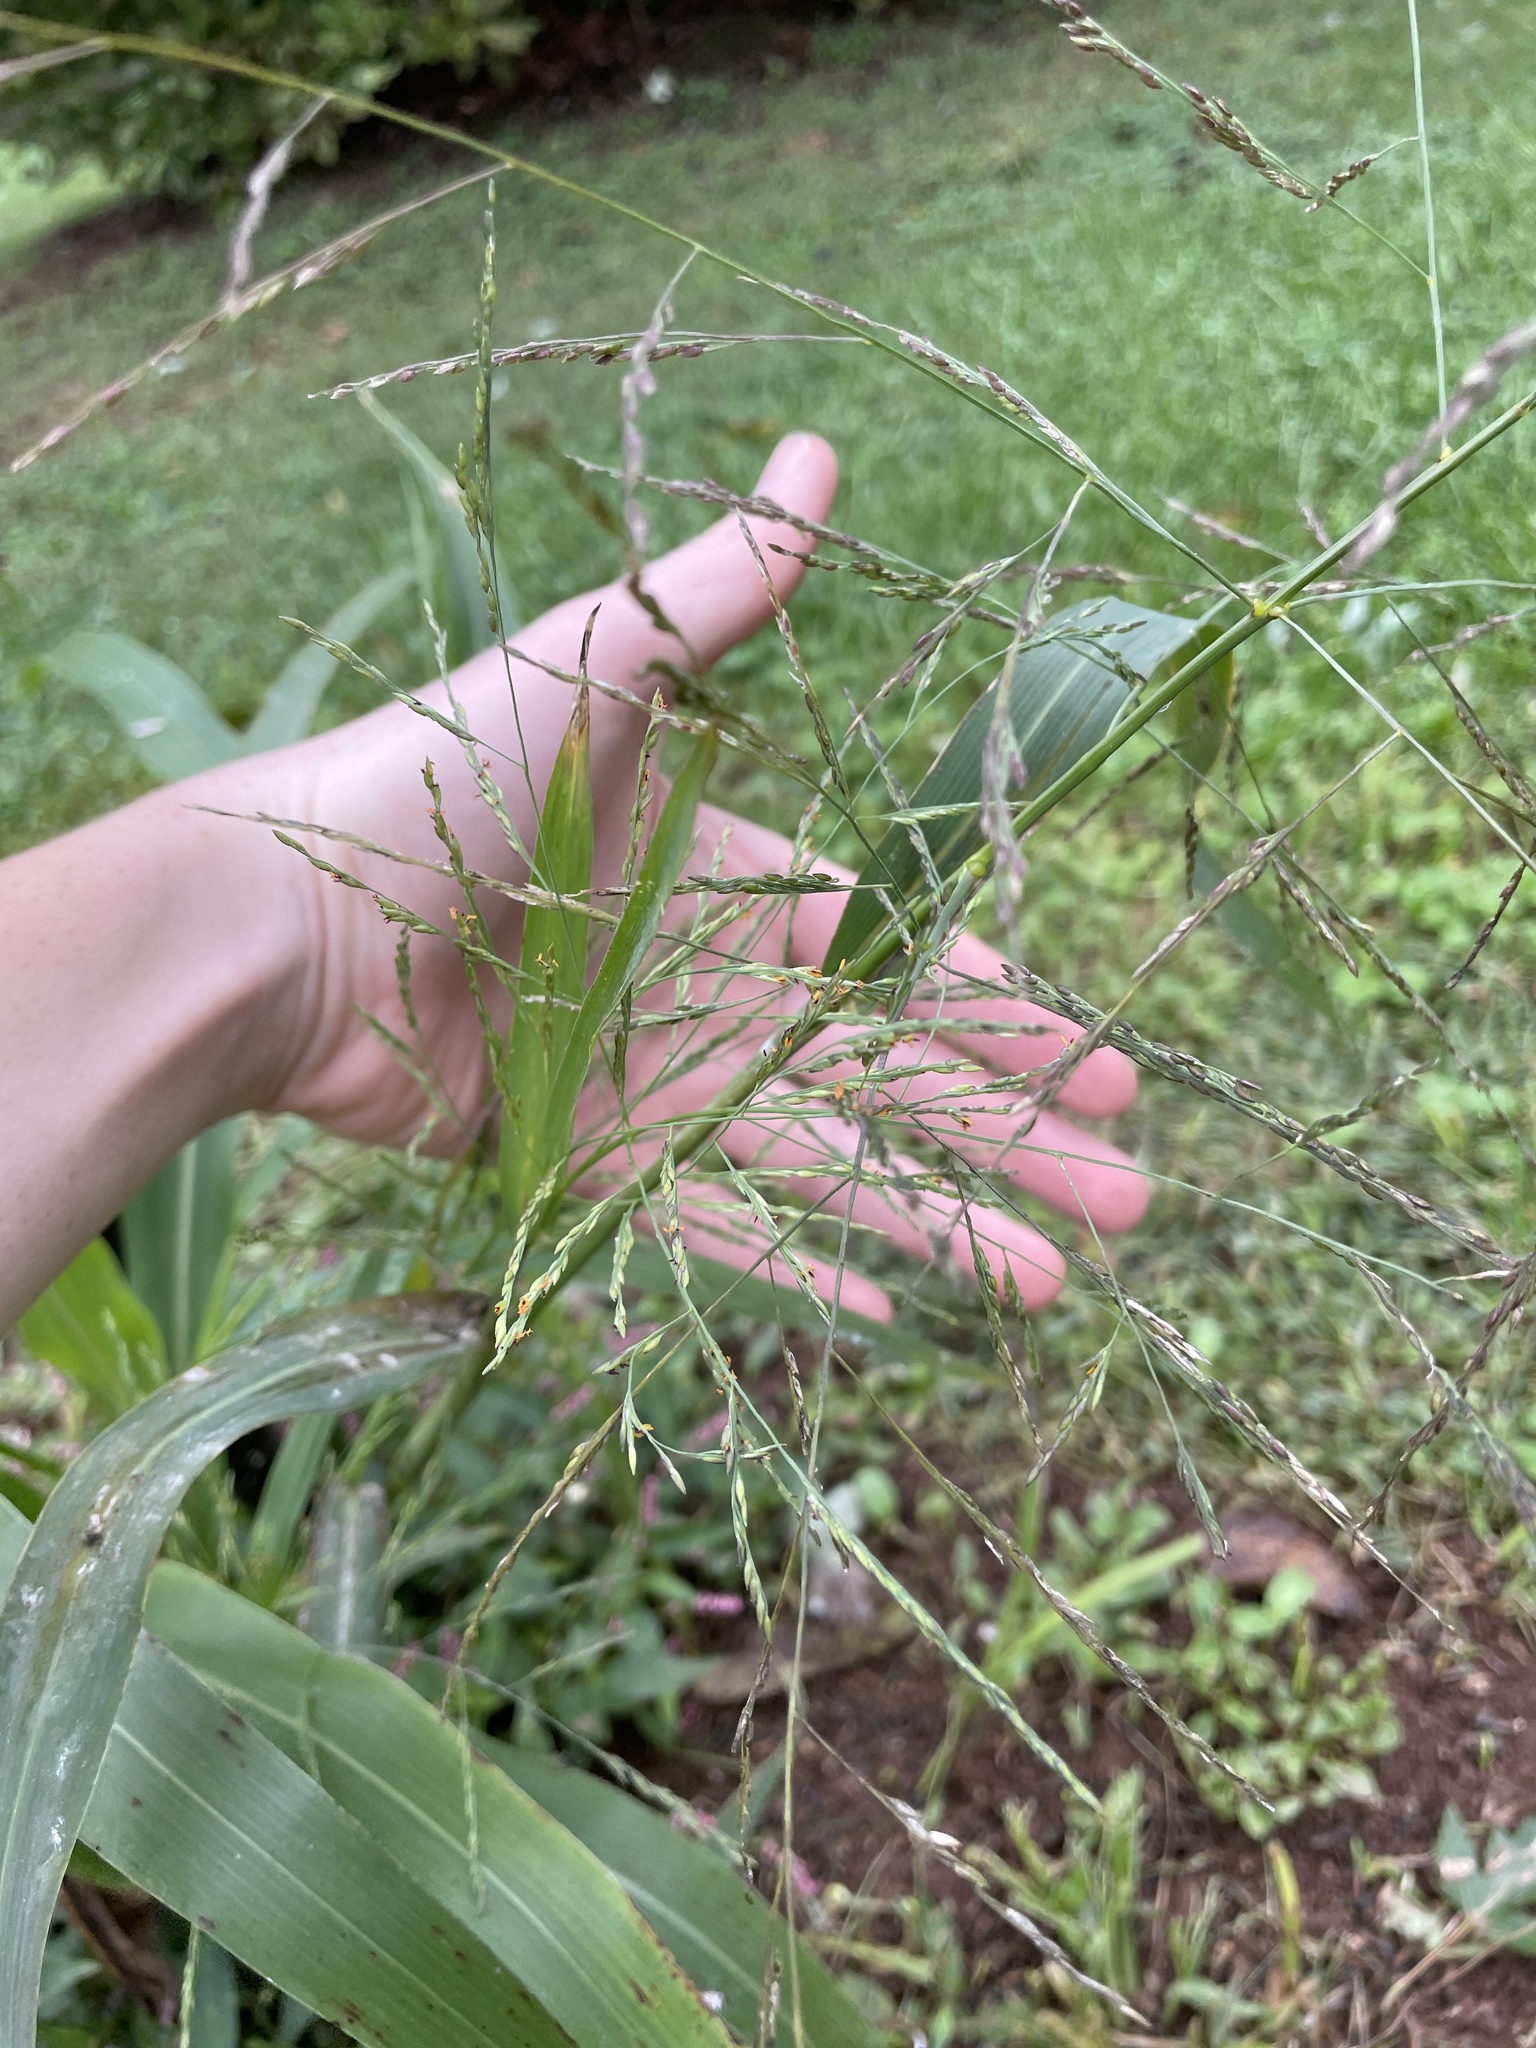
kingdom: Plantae
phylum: Tracheophyta
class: Liliopsida
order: Poales
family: Poaceae
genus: Panicum
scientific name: Panicum dichotomiflorum
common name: Autumn millet
